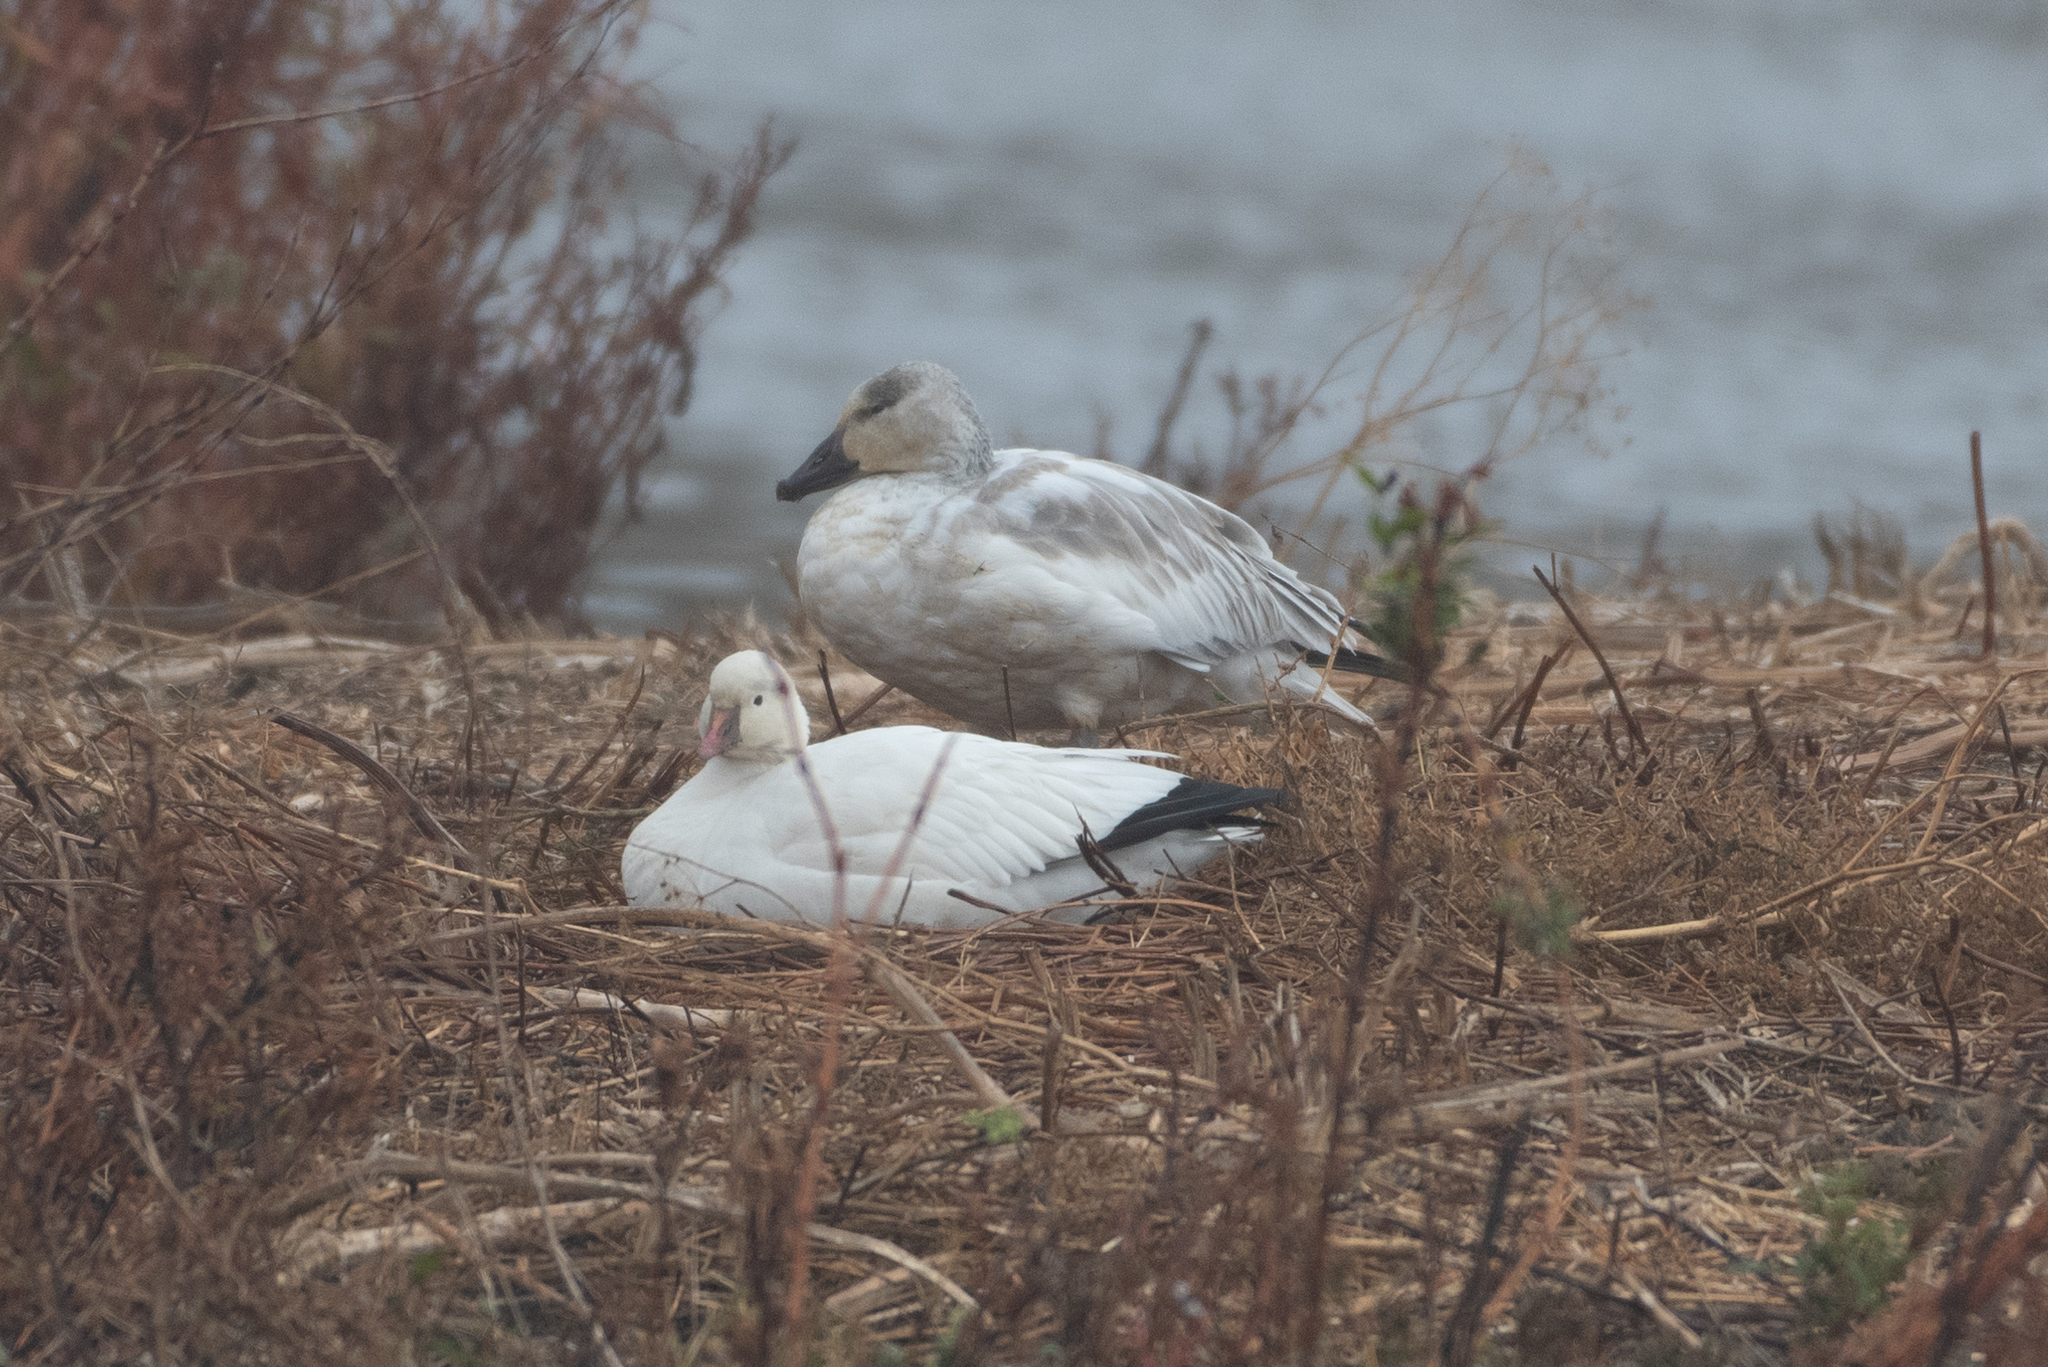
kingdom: Animalia
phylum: Chordata
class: Aves
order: Anseriformes
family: Anatidae
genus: Anser
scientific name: Anser caerulescens
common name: Snow goose
